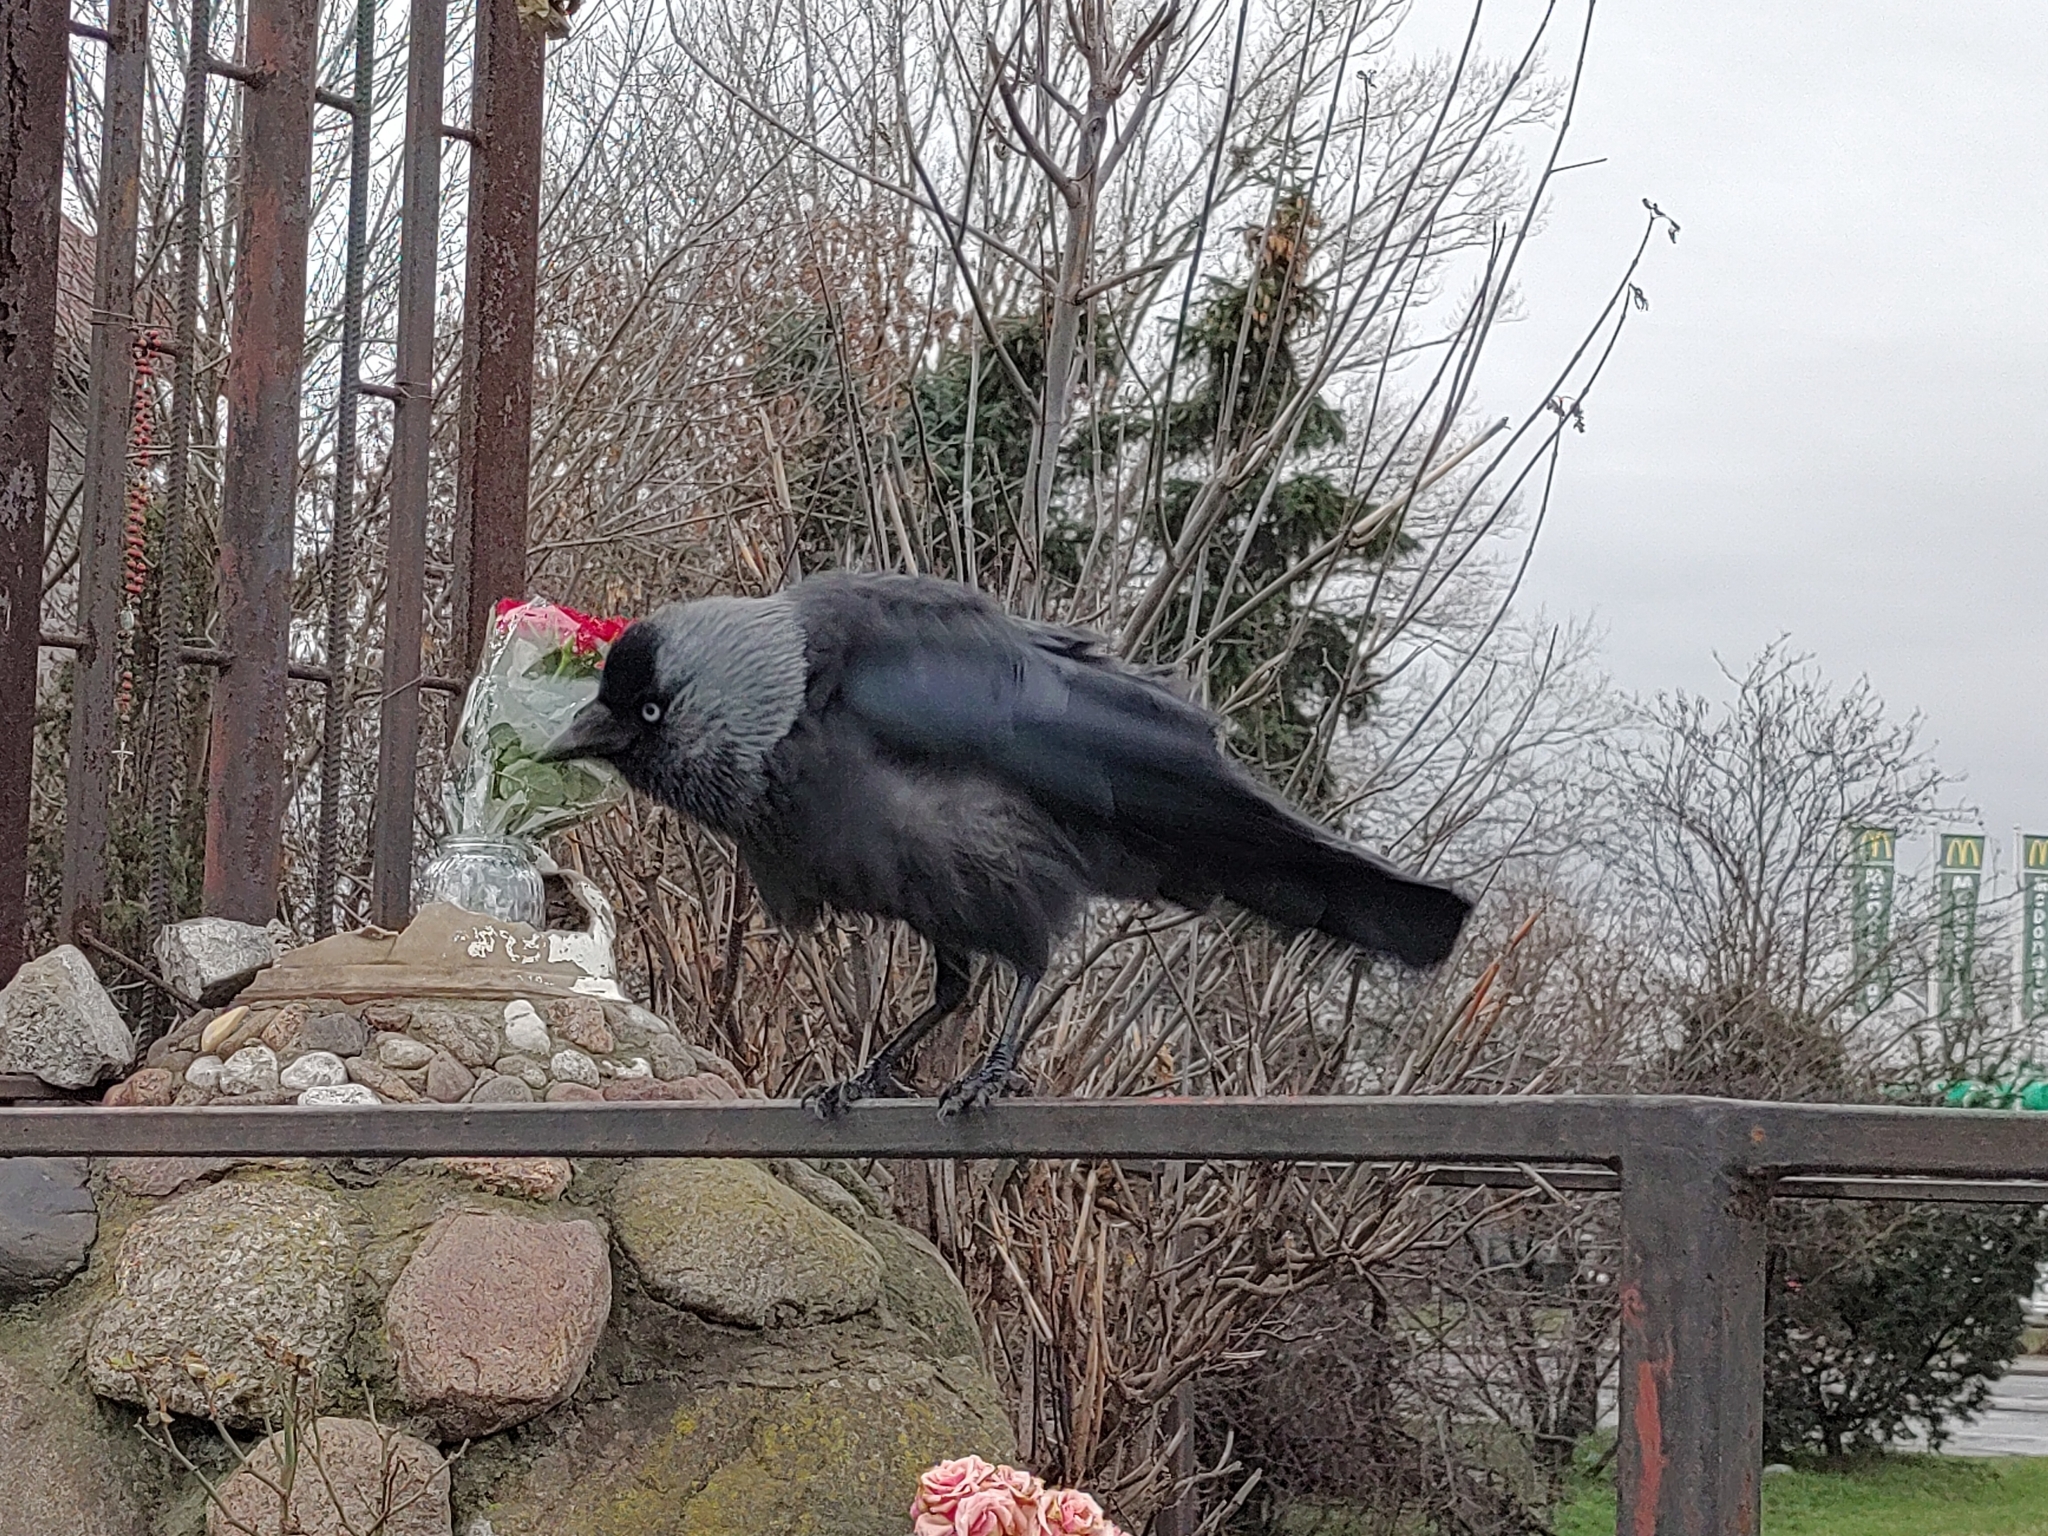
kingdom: Animalia
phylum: Chordata
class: Aves
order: Passeriformes
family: Corvidae
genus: Coloeus
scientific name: Coloeus monedula
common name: Western jackdaw
